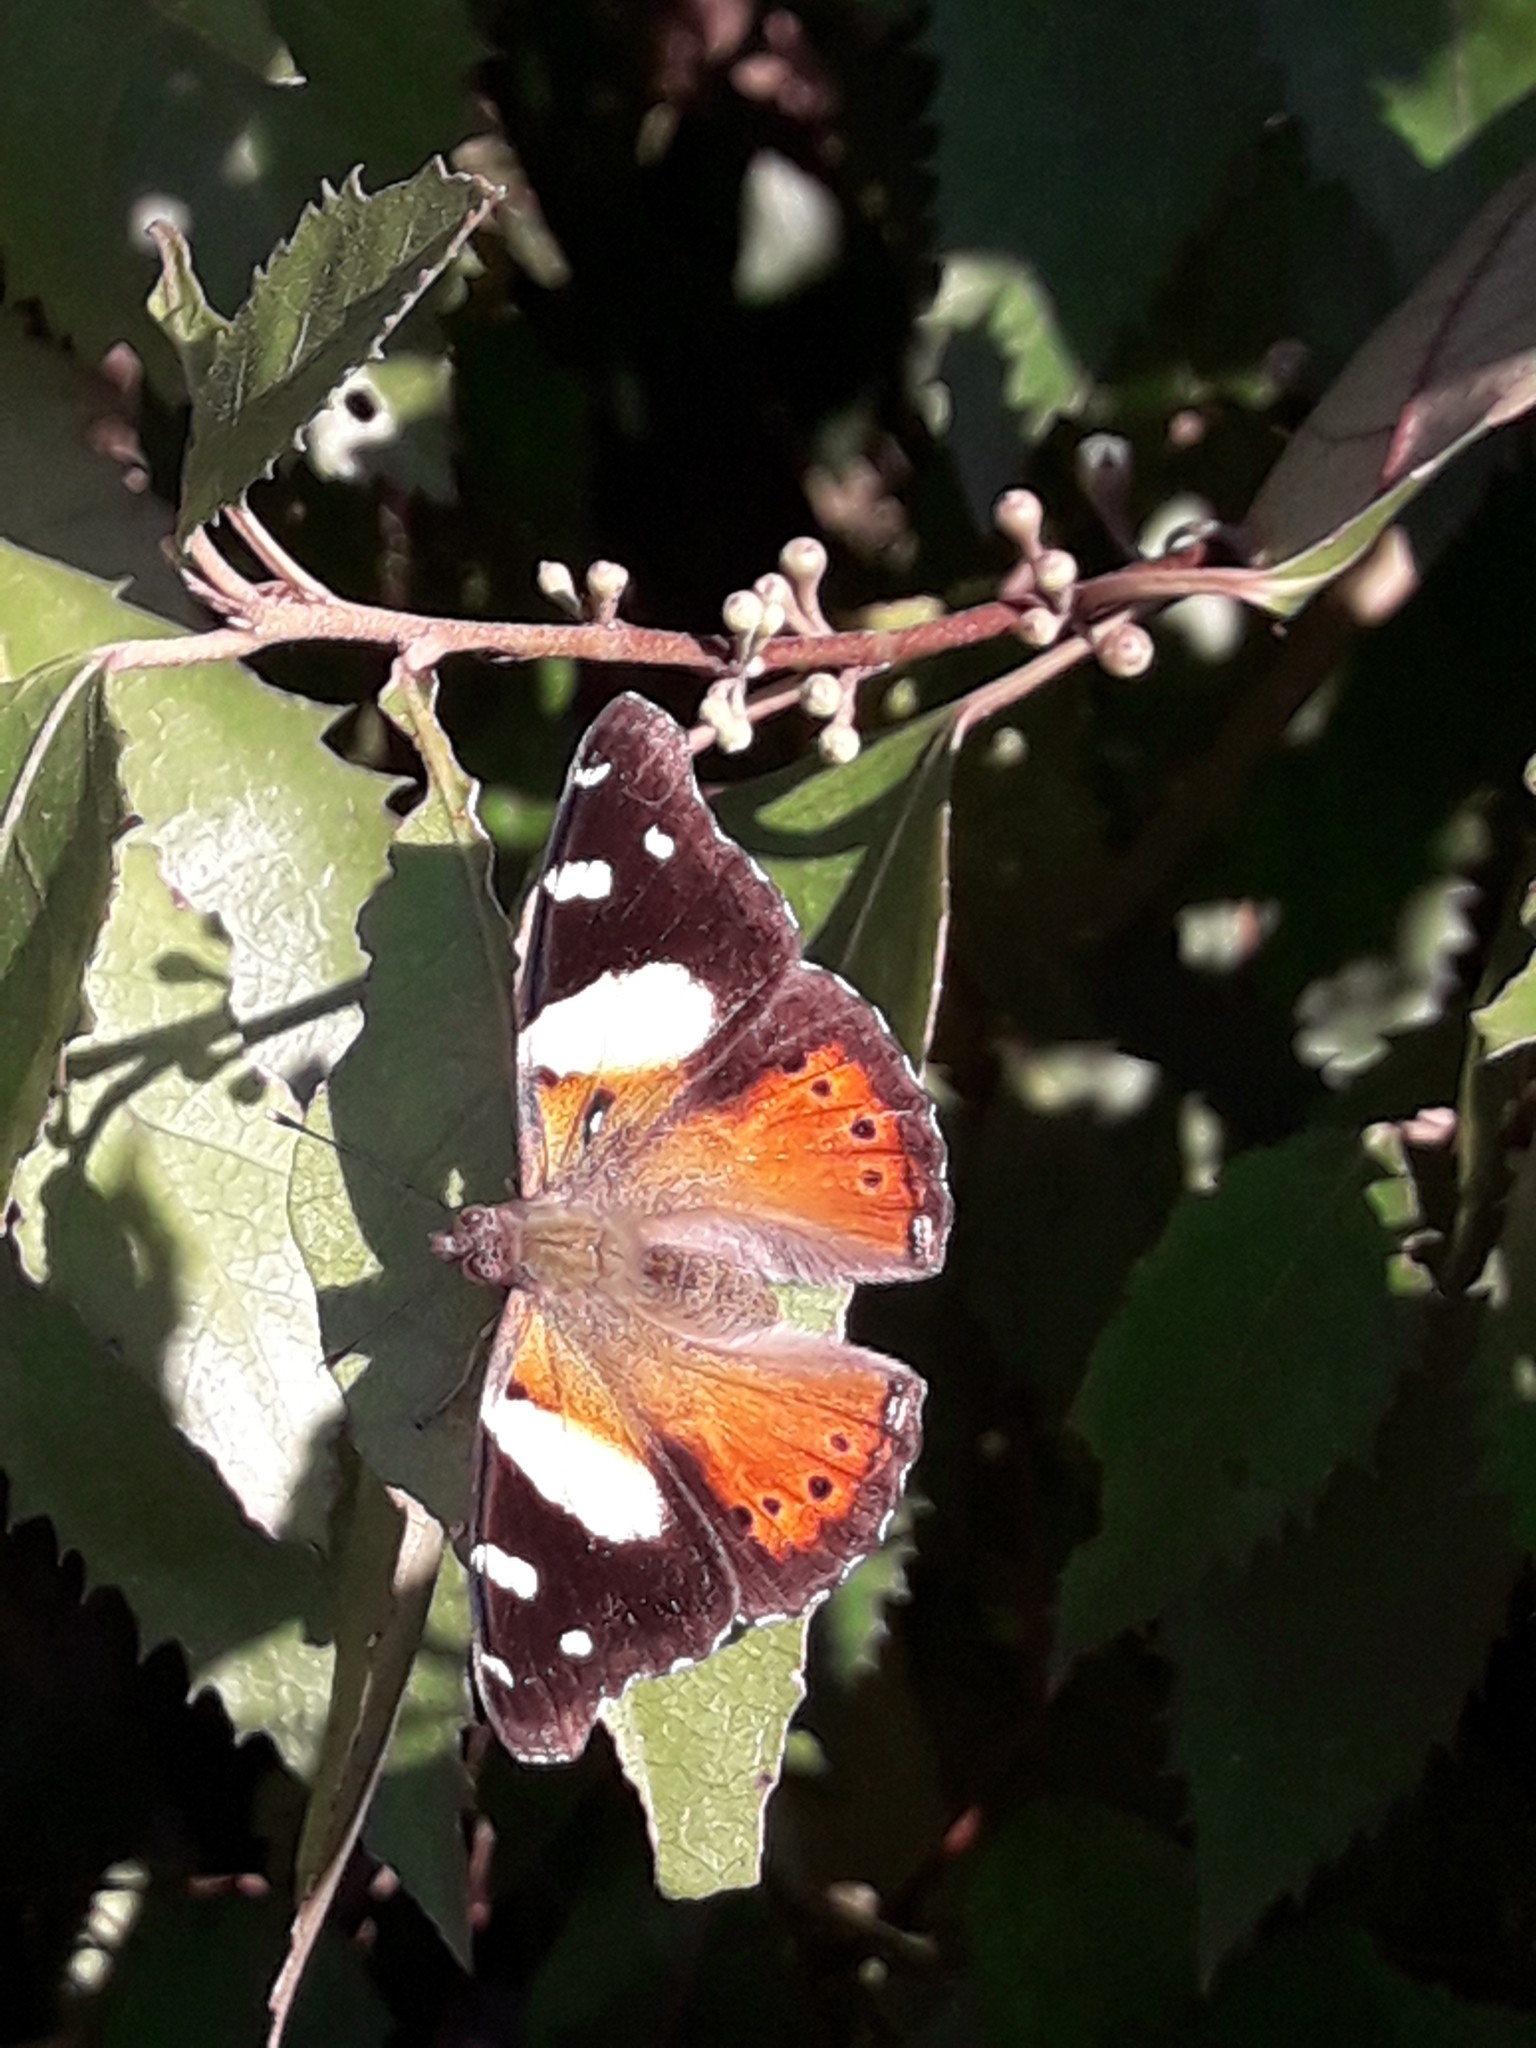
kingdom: Animalia
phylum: Arthropoda
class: Insecta
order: Lepidoptera
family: Nymphalidae
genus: Vanessa
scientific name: Vanessa itea
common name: Yellow admiral
